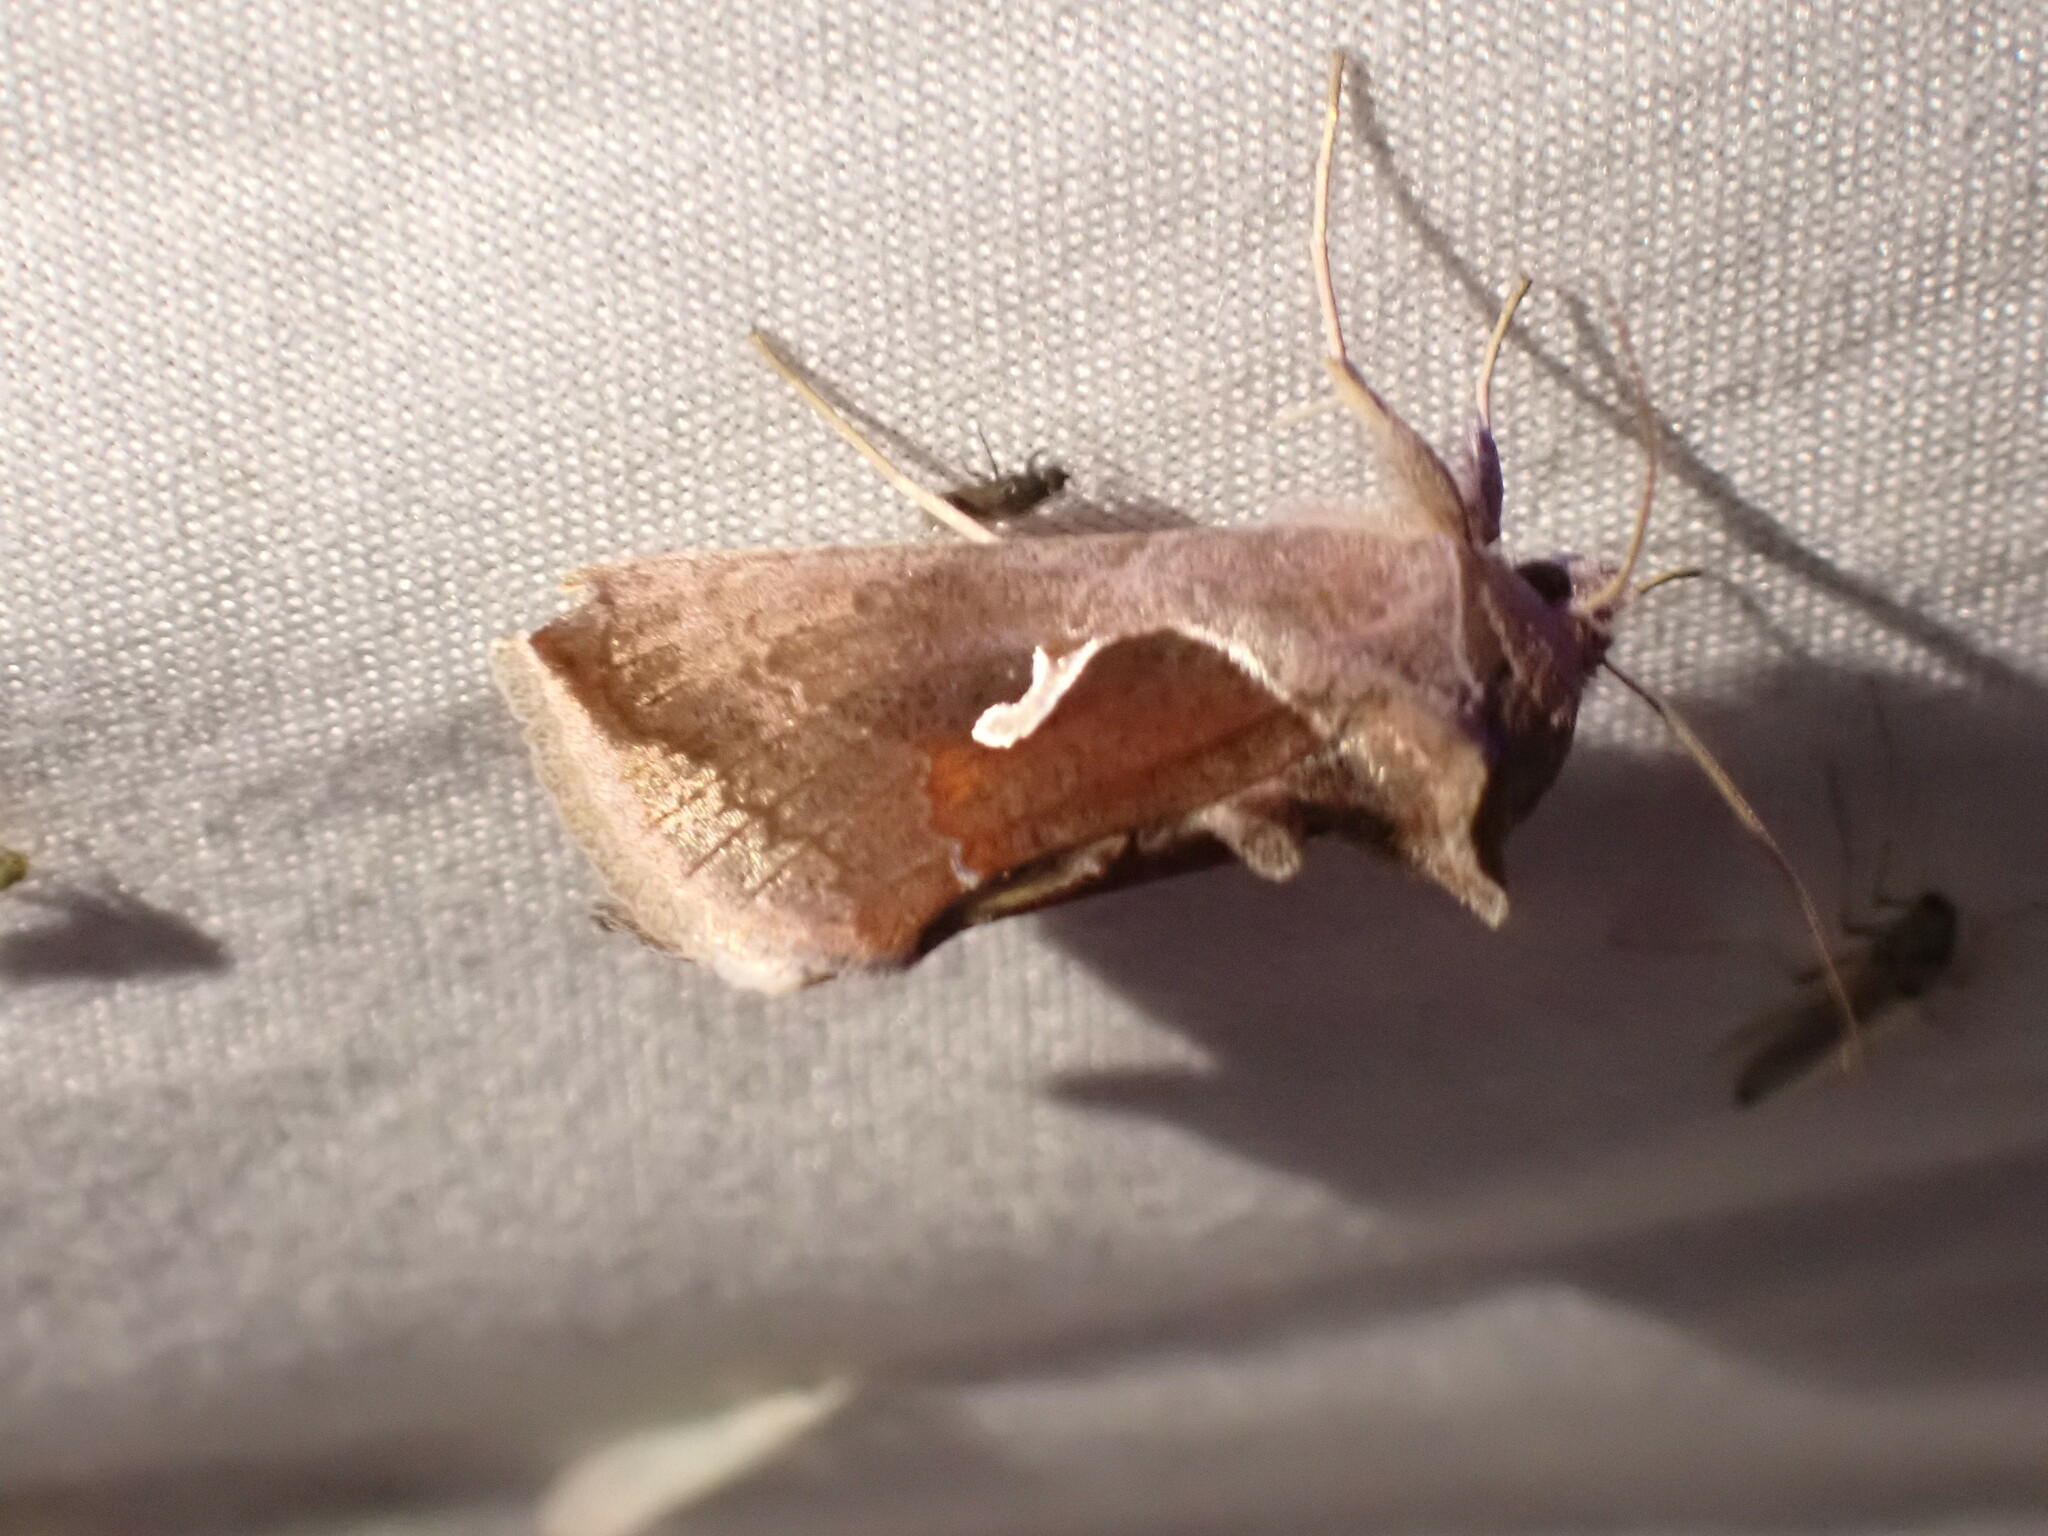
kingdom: Animalia
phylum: Arthropoda
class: Insecta
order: Lepidoptera
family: Noctuidae
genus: Anagrapha
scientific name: Anagrapha falcifera
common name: Celery looper
